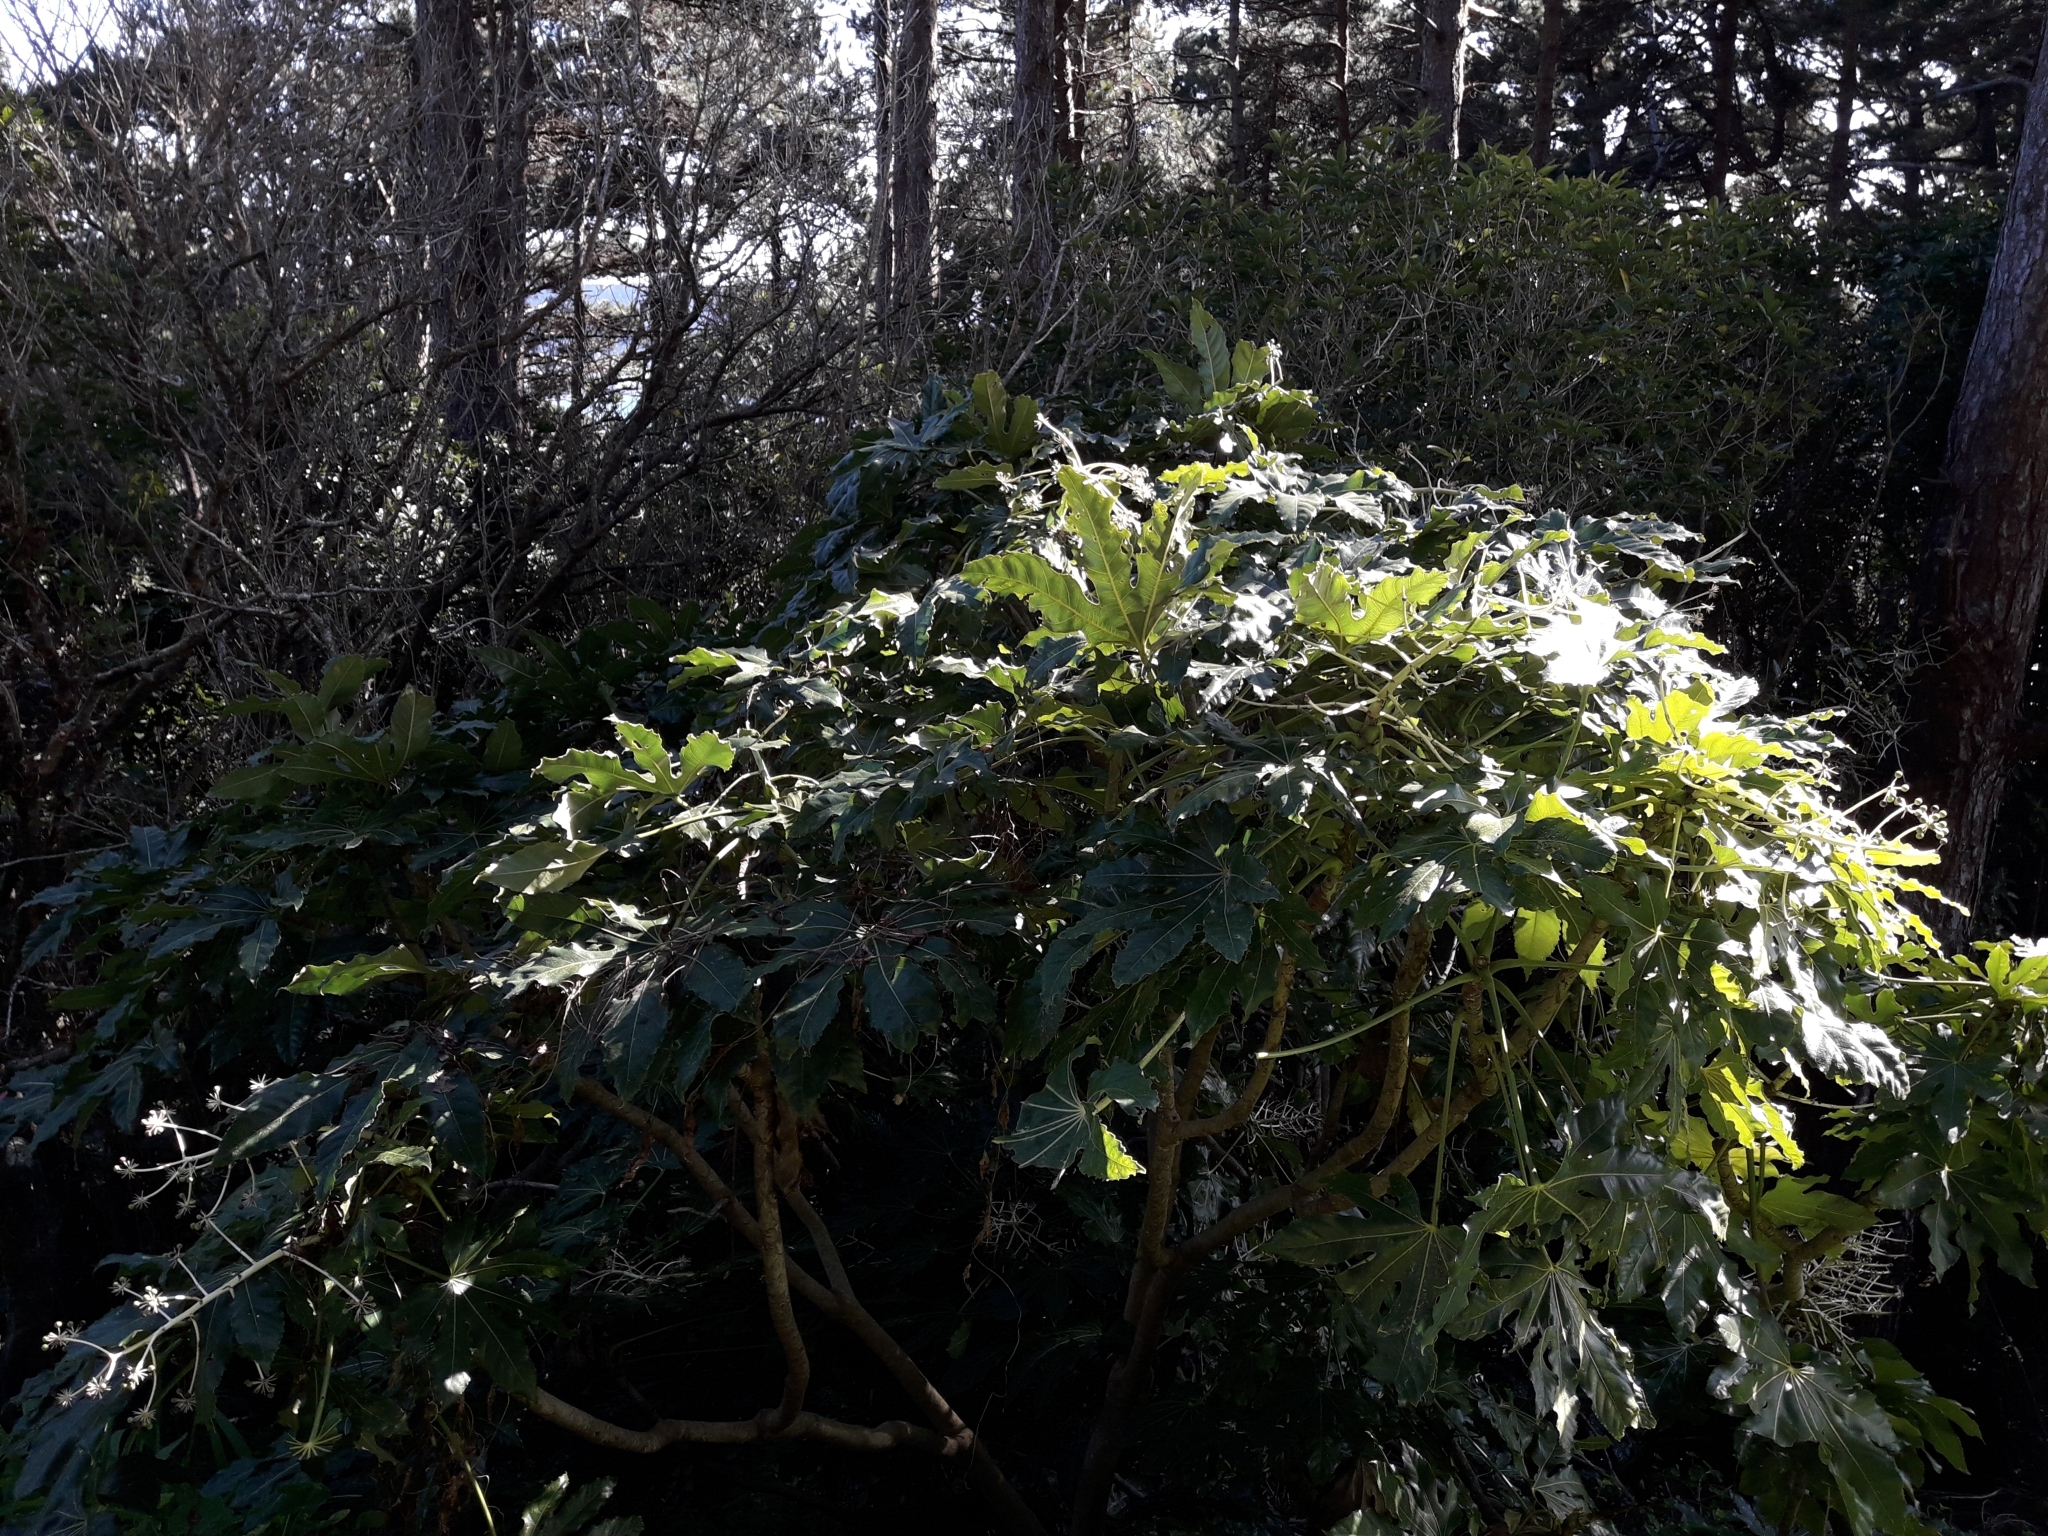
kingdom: Plantae
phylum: Tracheophyta
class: Magnoliopsida
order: Apiales
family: Araliaceae
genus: Fatsia
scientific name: Fatsia japonica
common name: Fatsia
